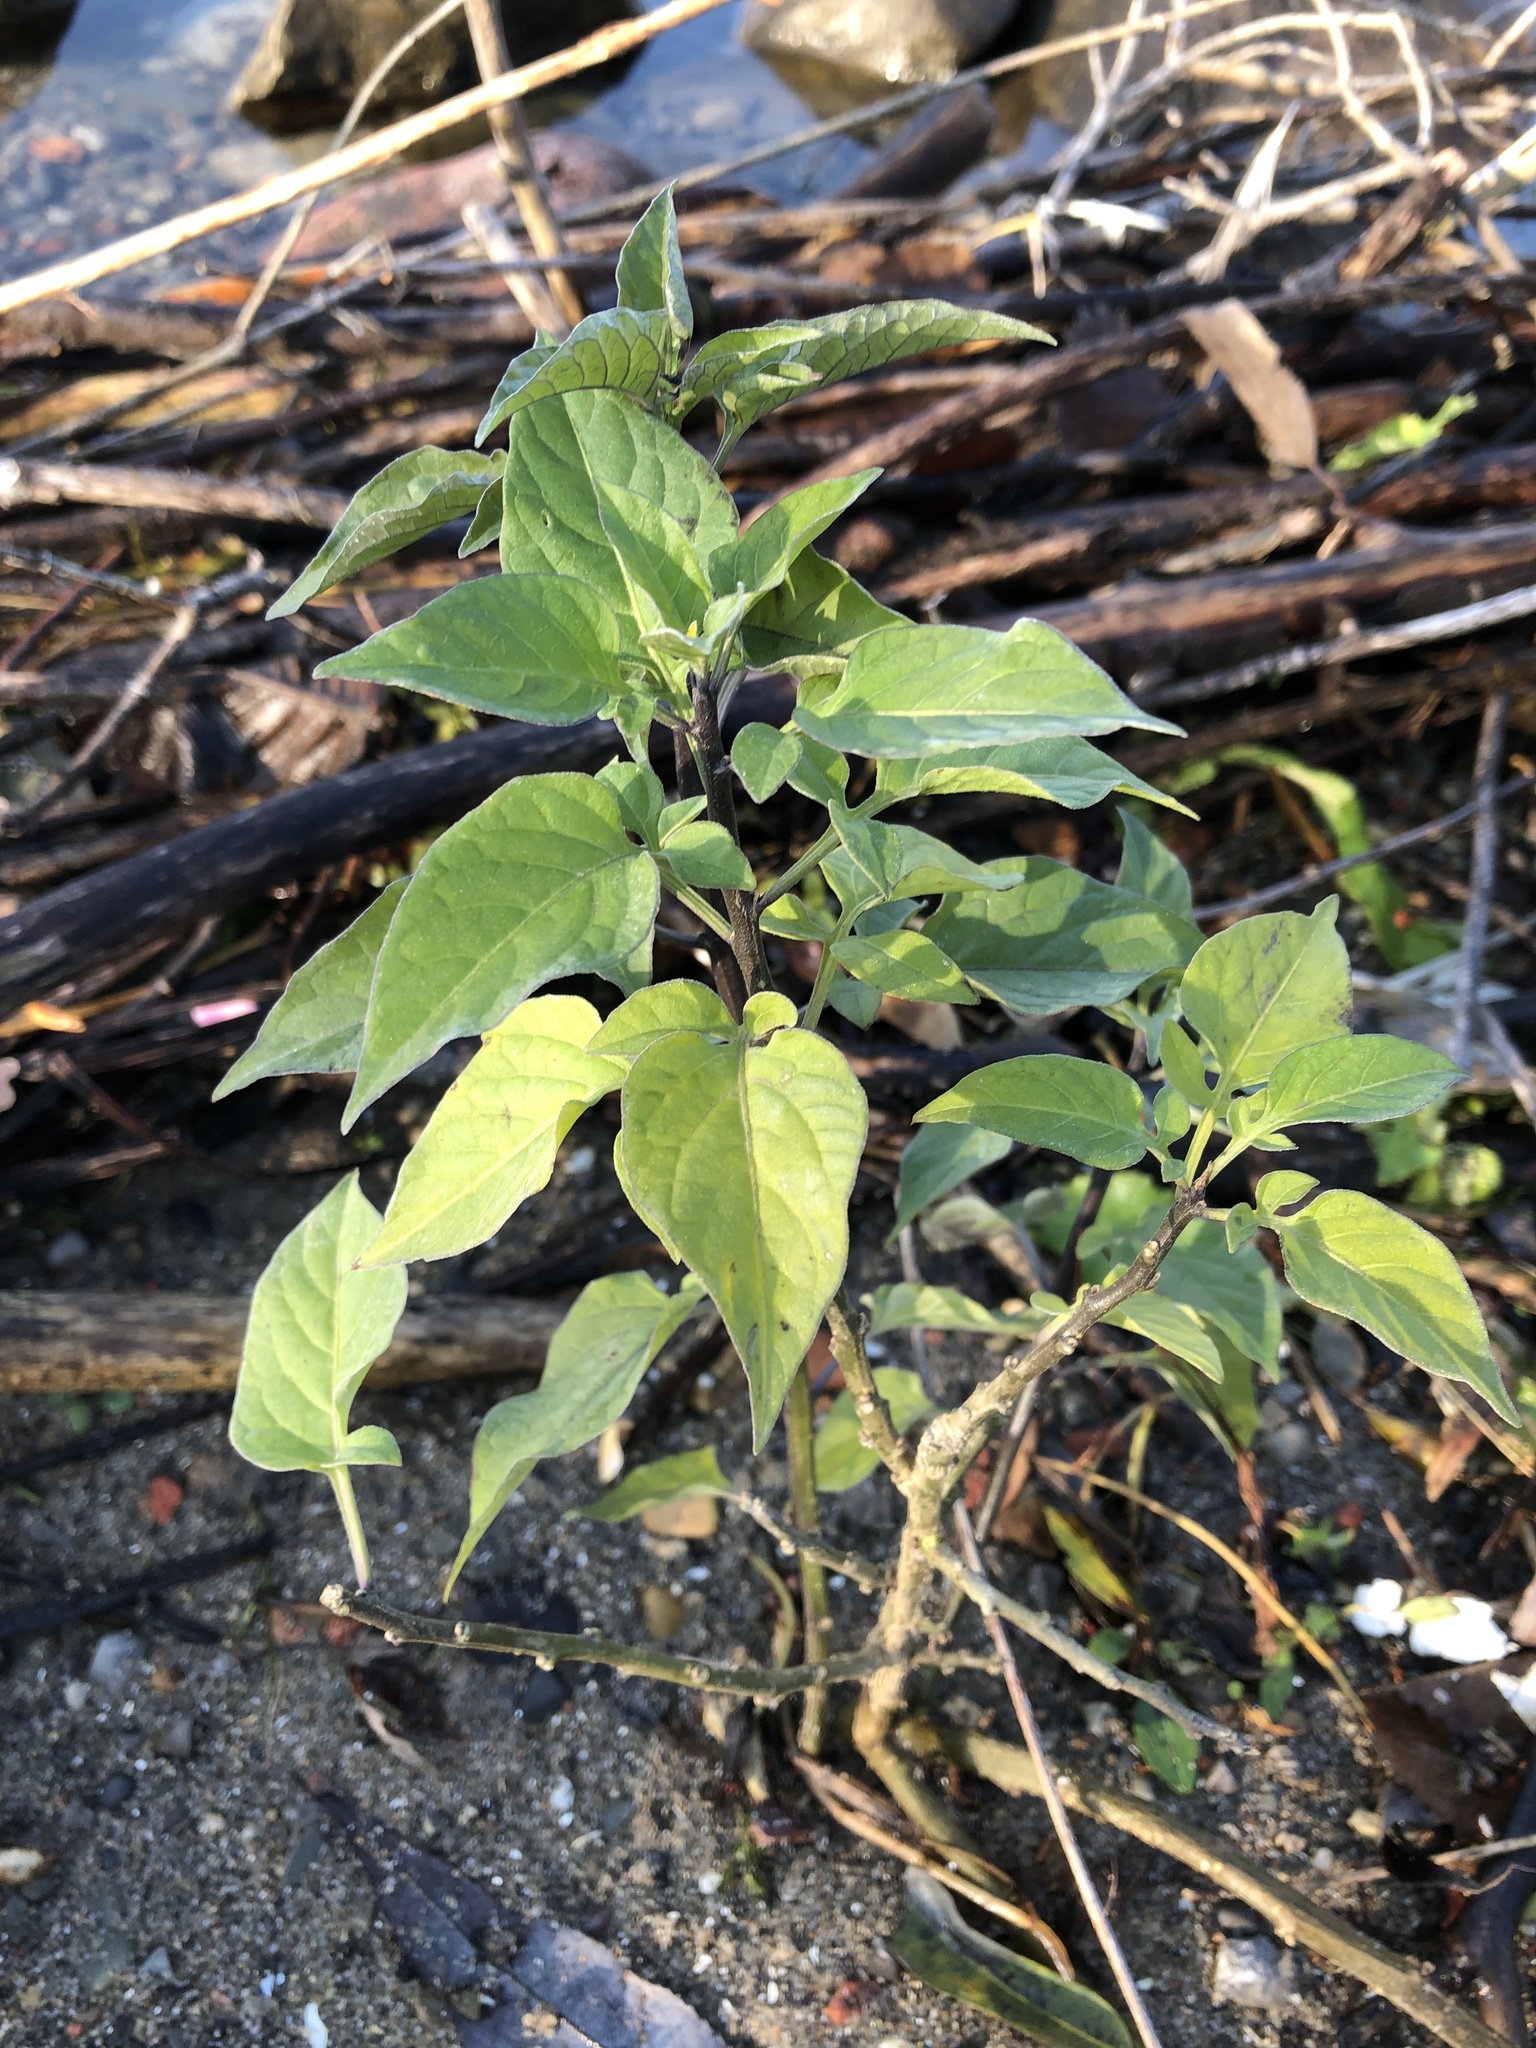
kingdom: Plantae
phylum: Tracheophyta
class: Magnoliopsida
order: Solanales
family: Solanaceae
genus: Solanum
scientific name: Solanum dulcamara
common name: Climbing nightshade
